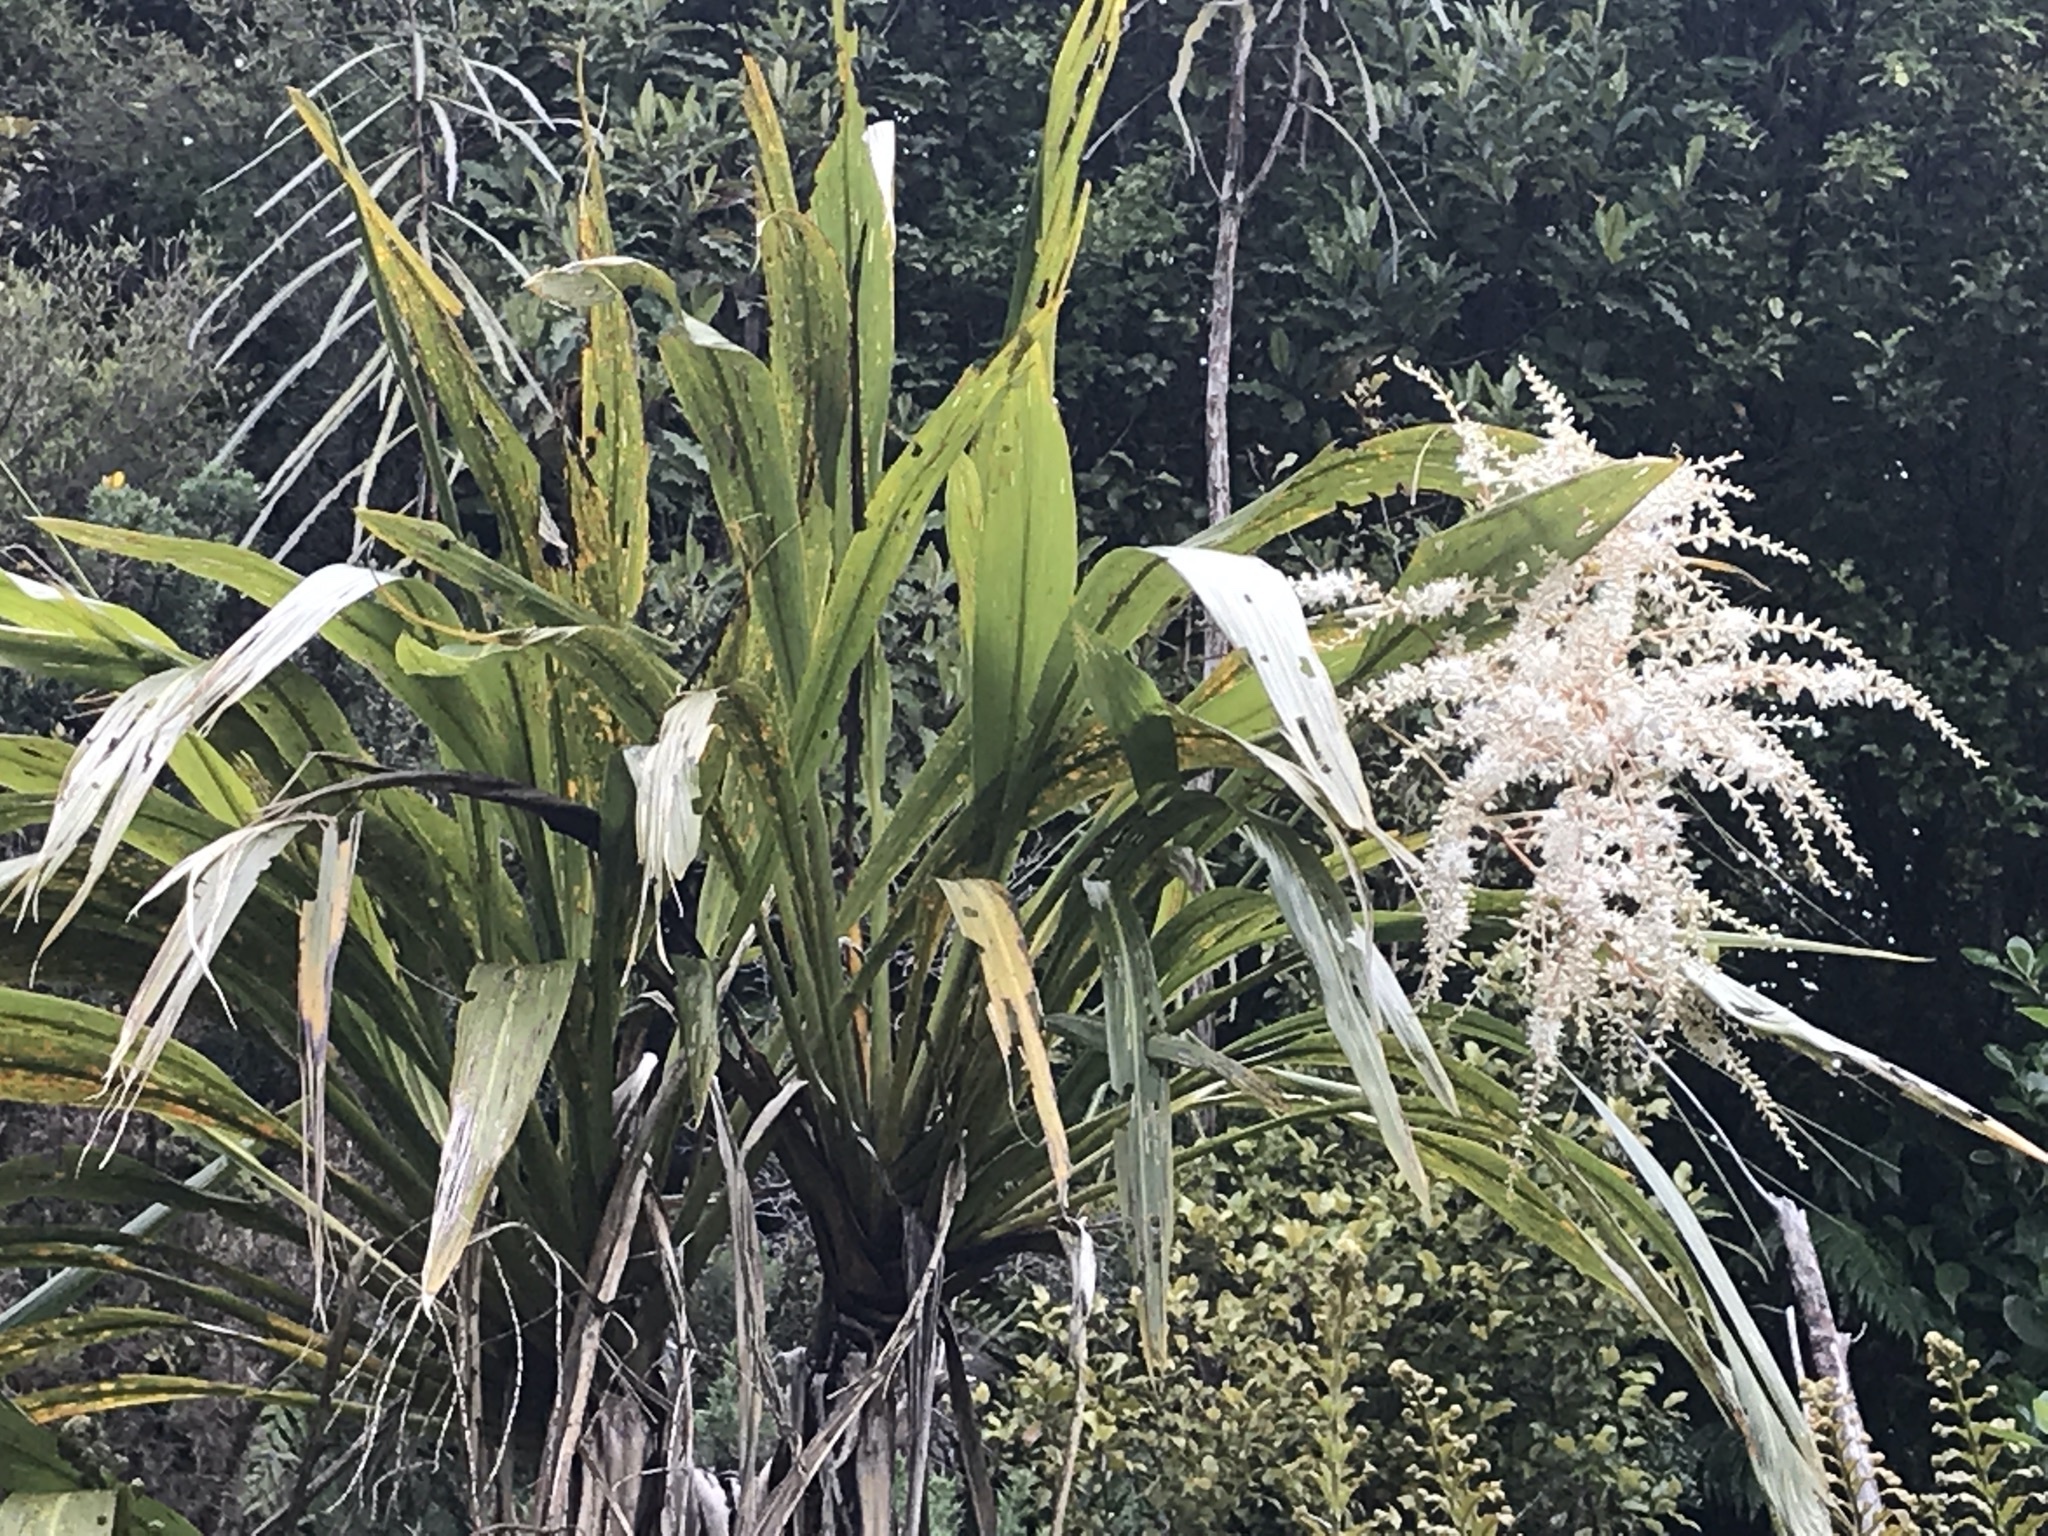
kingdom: Plantae
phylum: Tracheophyta
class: Liliopsida
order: Asparagales
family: Asparagaceae
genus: Cordyline
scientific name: Cordyline banksii
